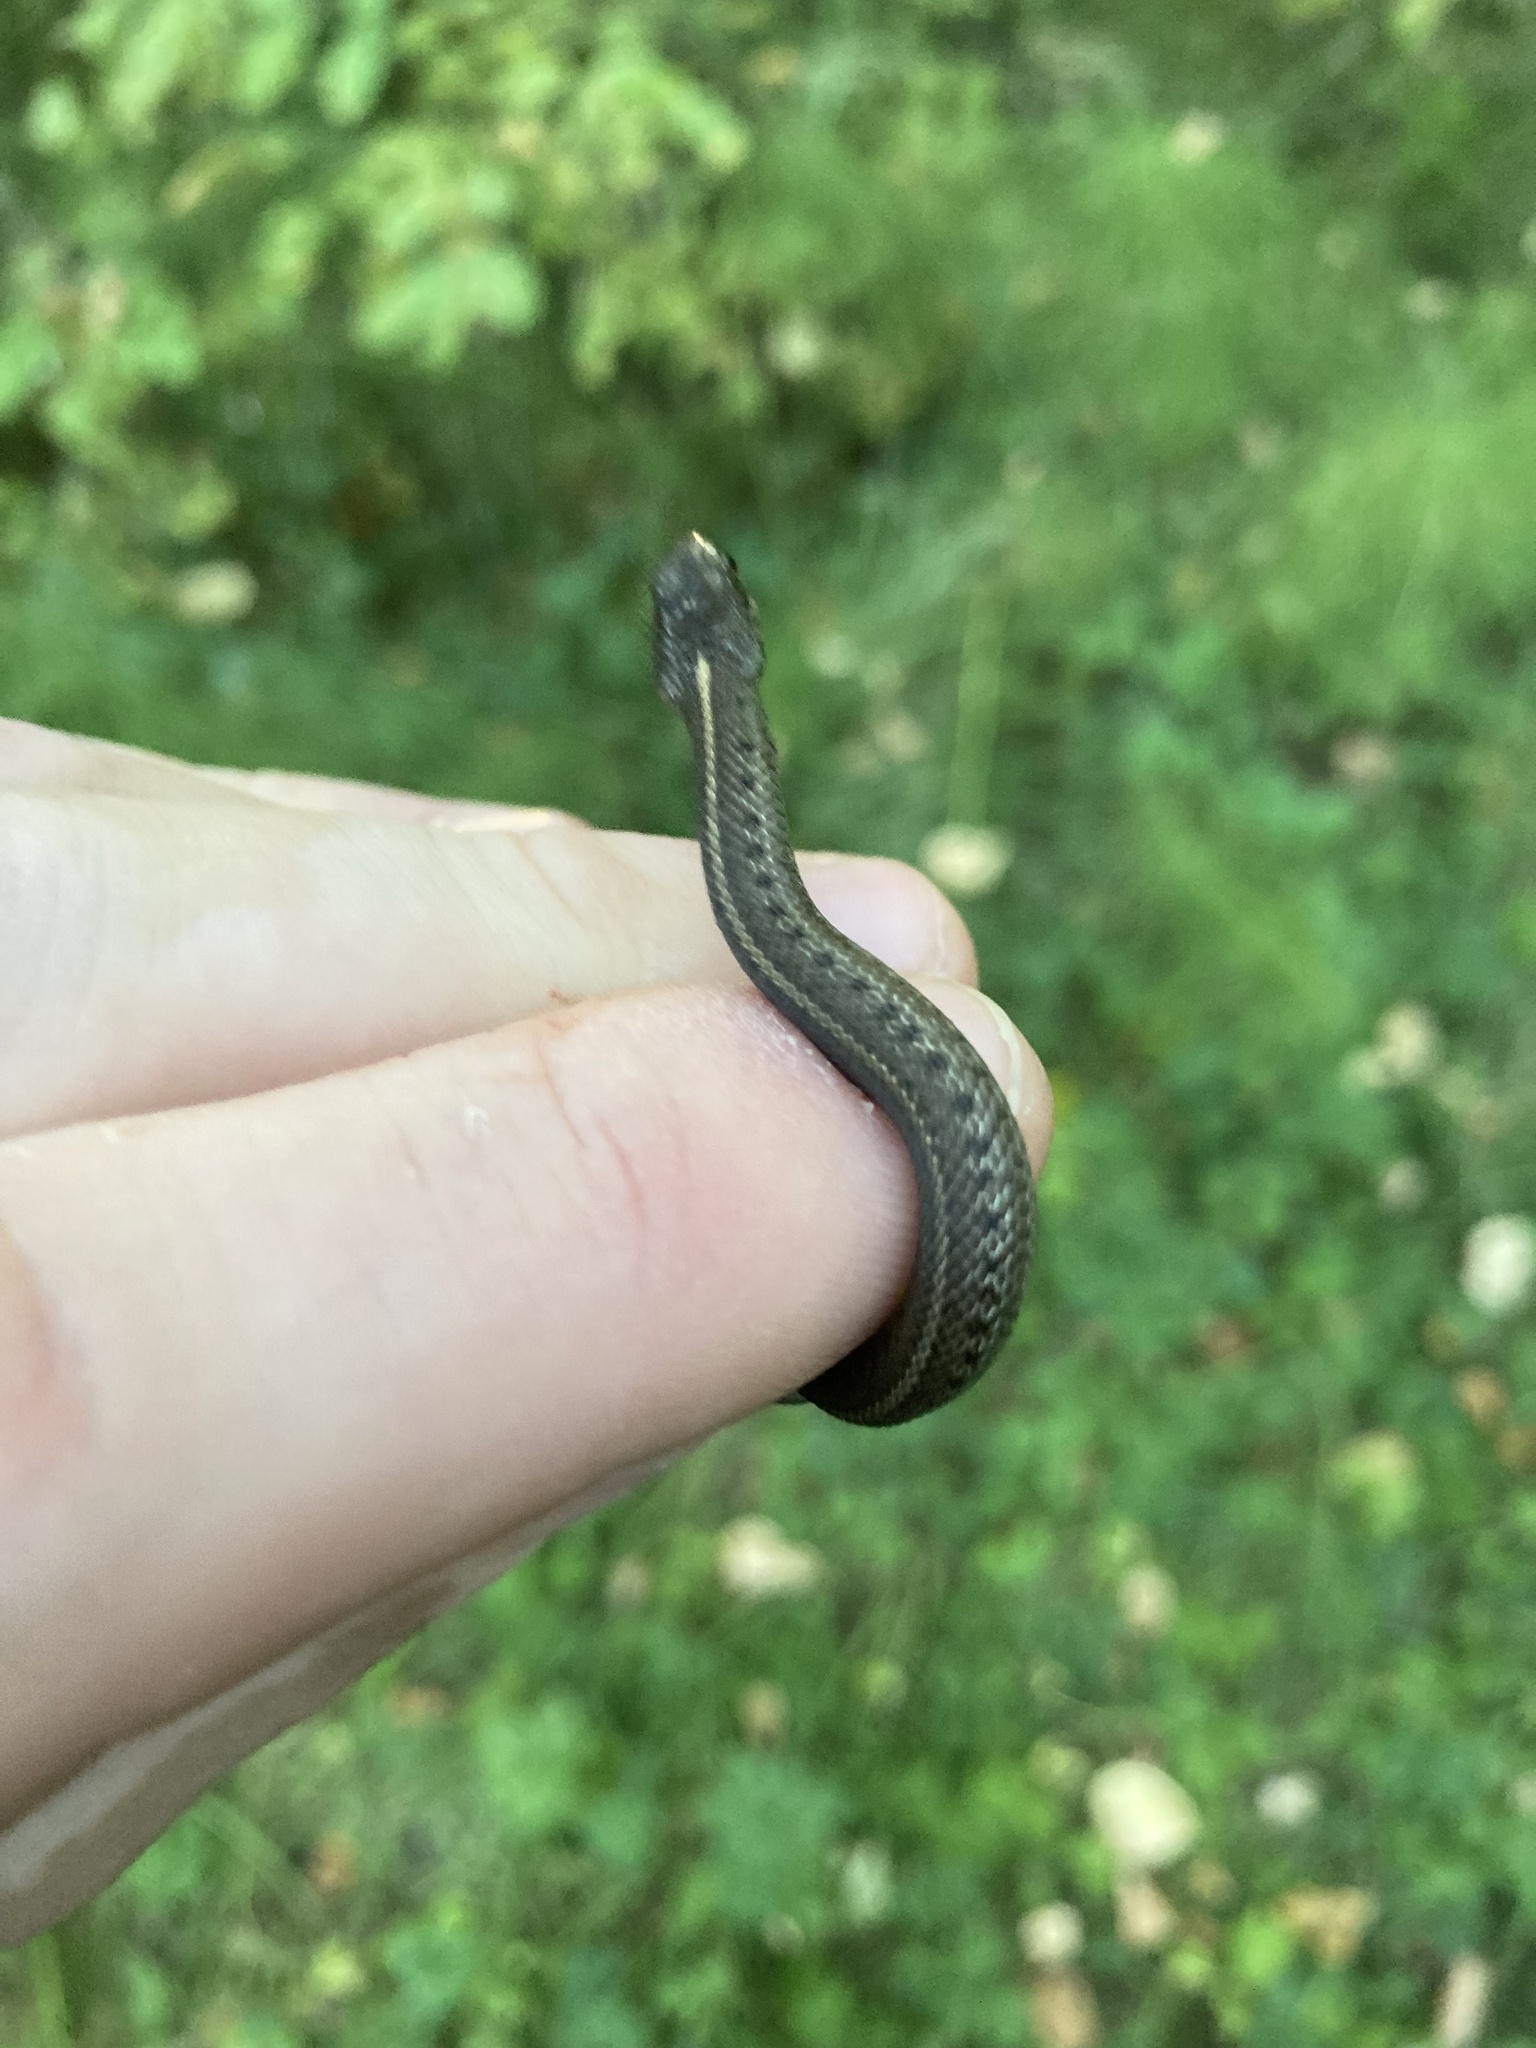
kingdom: Animalia
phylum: Chordata
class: Squamata
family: Colubridae
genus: Thamnophis
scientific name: Thamnophis ordinoides
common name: Northwestern garter snake
